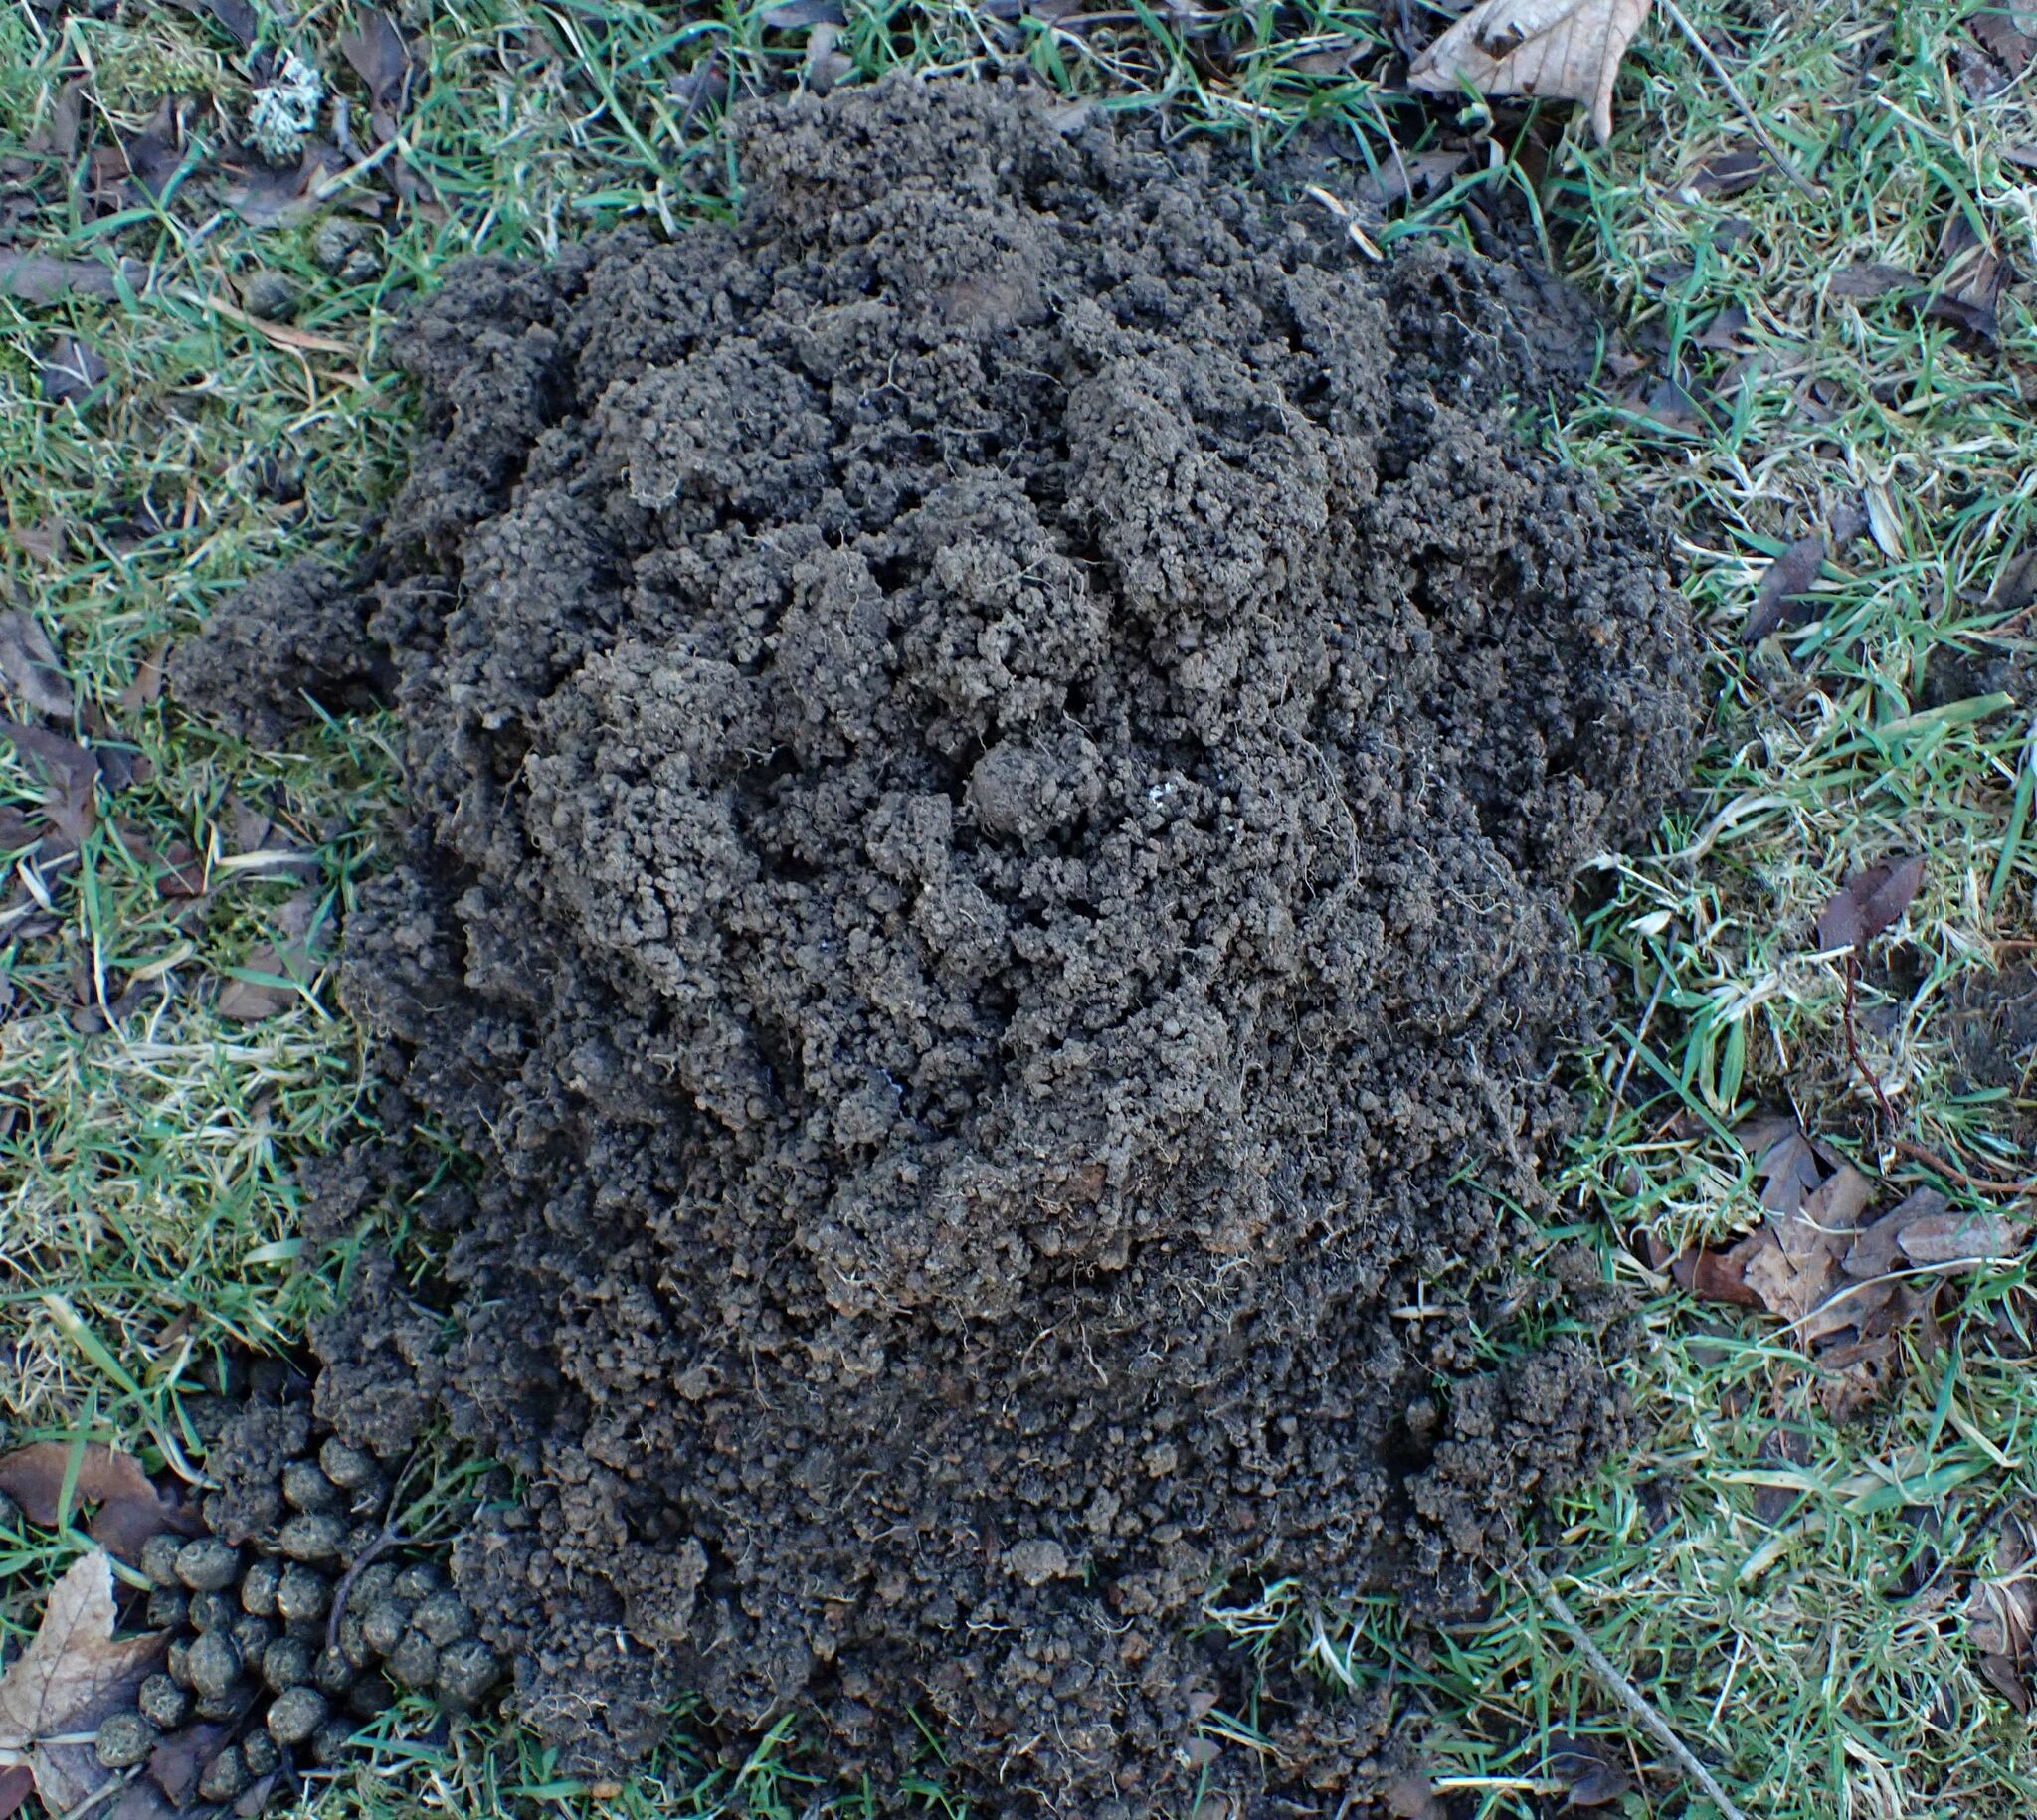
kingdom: Animalia
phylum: Chordata
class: Mammalia
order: Soricomorpha
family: Talpidae
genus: Talpa
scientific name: Talpa europaea
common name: European mole
